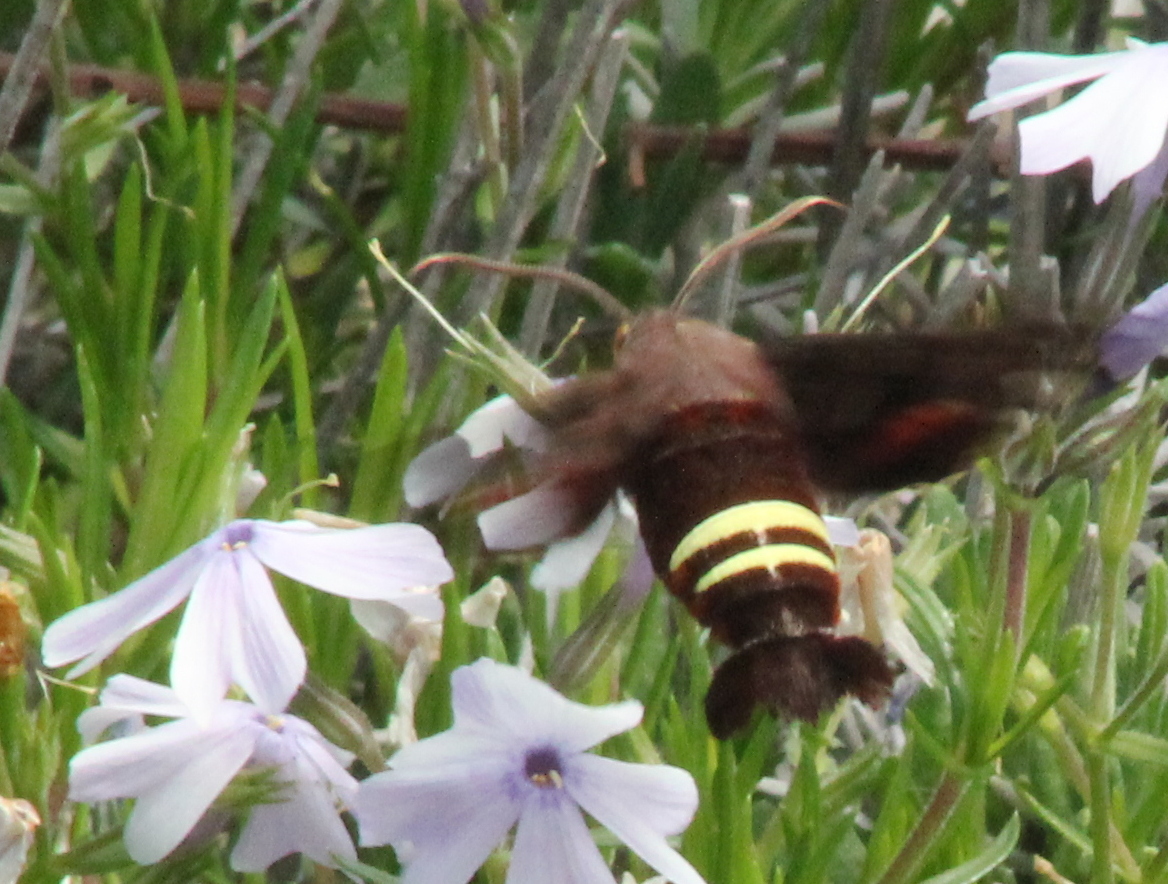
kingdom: Animalia
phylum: Arthropoda
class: Insecta
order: Lepidoptera
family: Sphingidae
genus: Amphion
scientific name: Amphion floridensis
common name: Nessus sphinx
